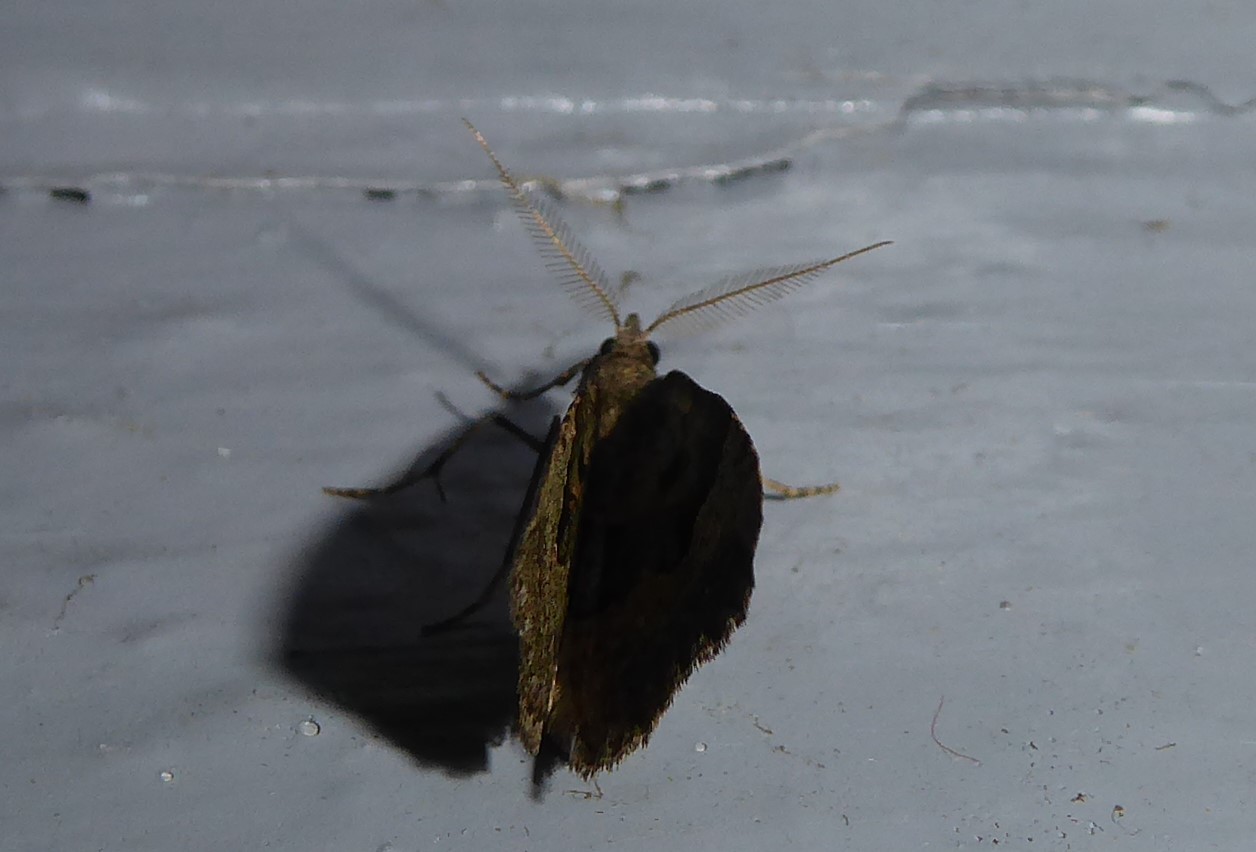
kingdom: Animalia
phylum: Arthropoda
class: Insecta
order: Lepidoptera
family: Geometridae
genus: Epyaxa
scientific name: Epyaxa rosearia
